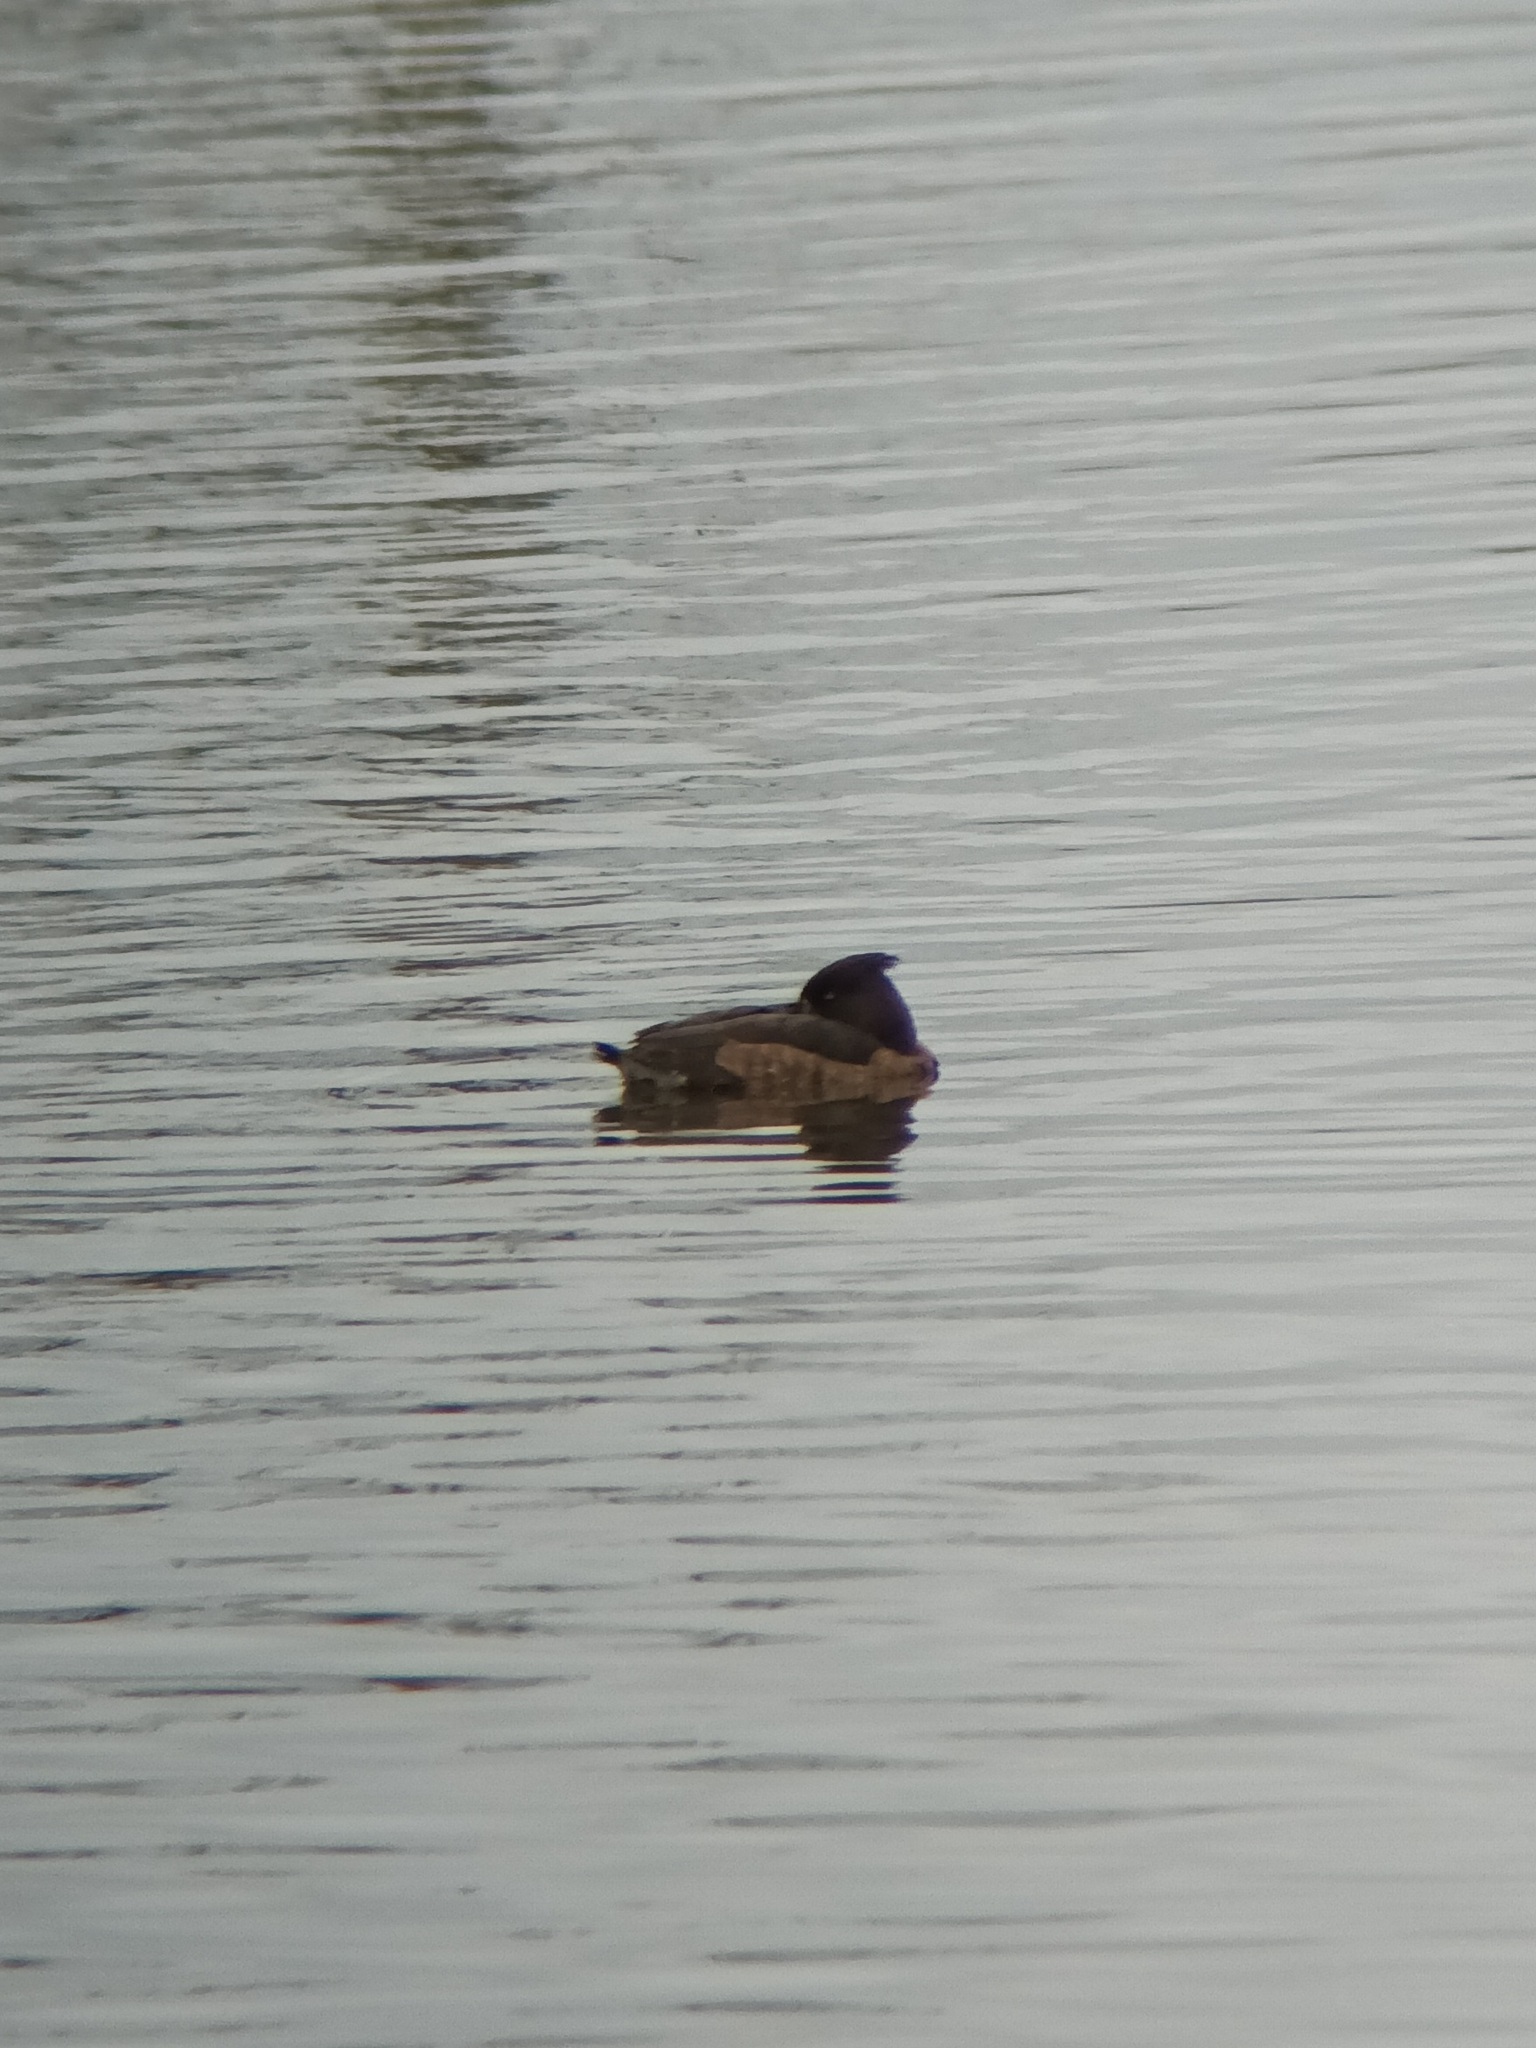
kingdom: Animalia
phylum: Chordata
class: Aves
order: Anseriformes
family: Anatidae
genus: Aythya
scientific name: Aythya fuligula
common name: Tufted duck
